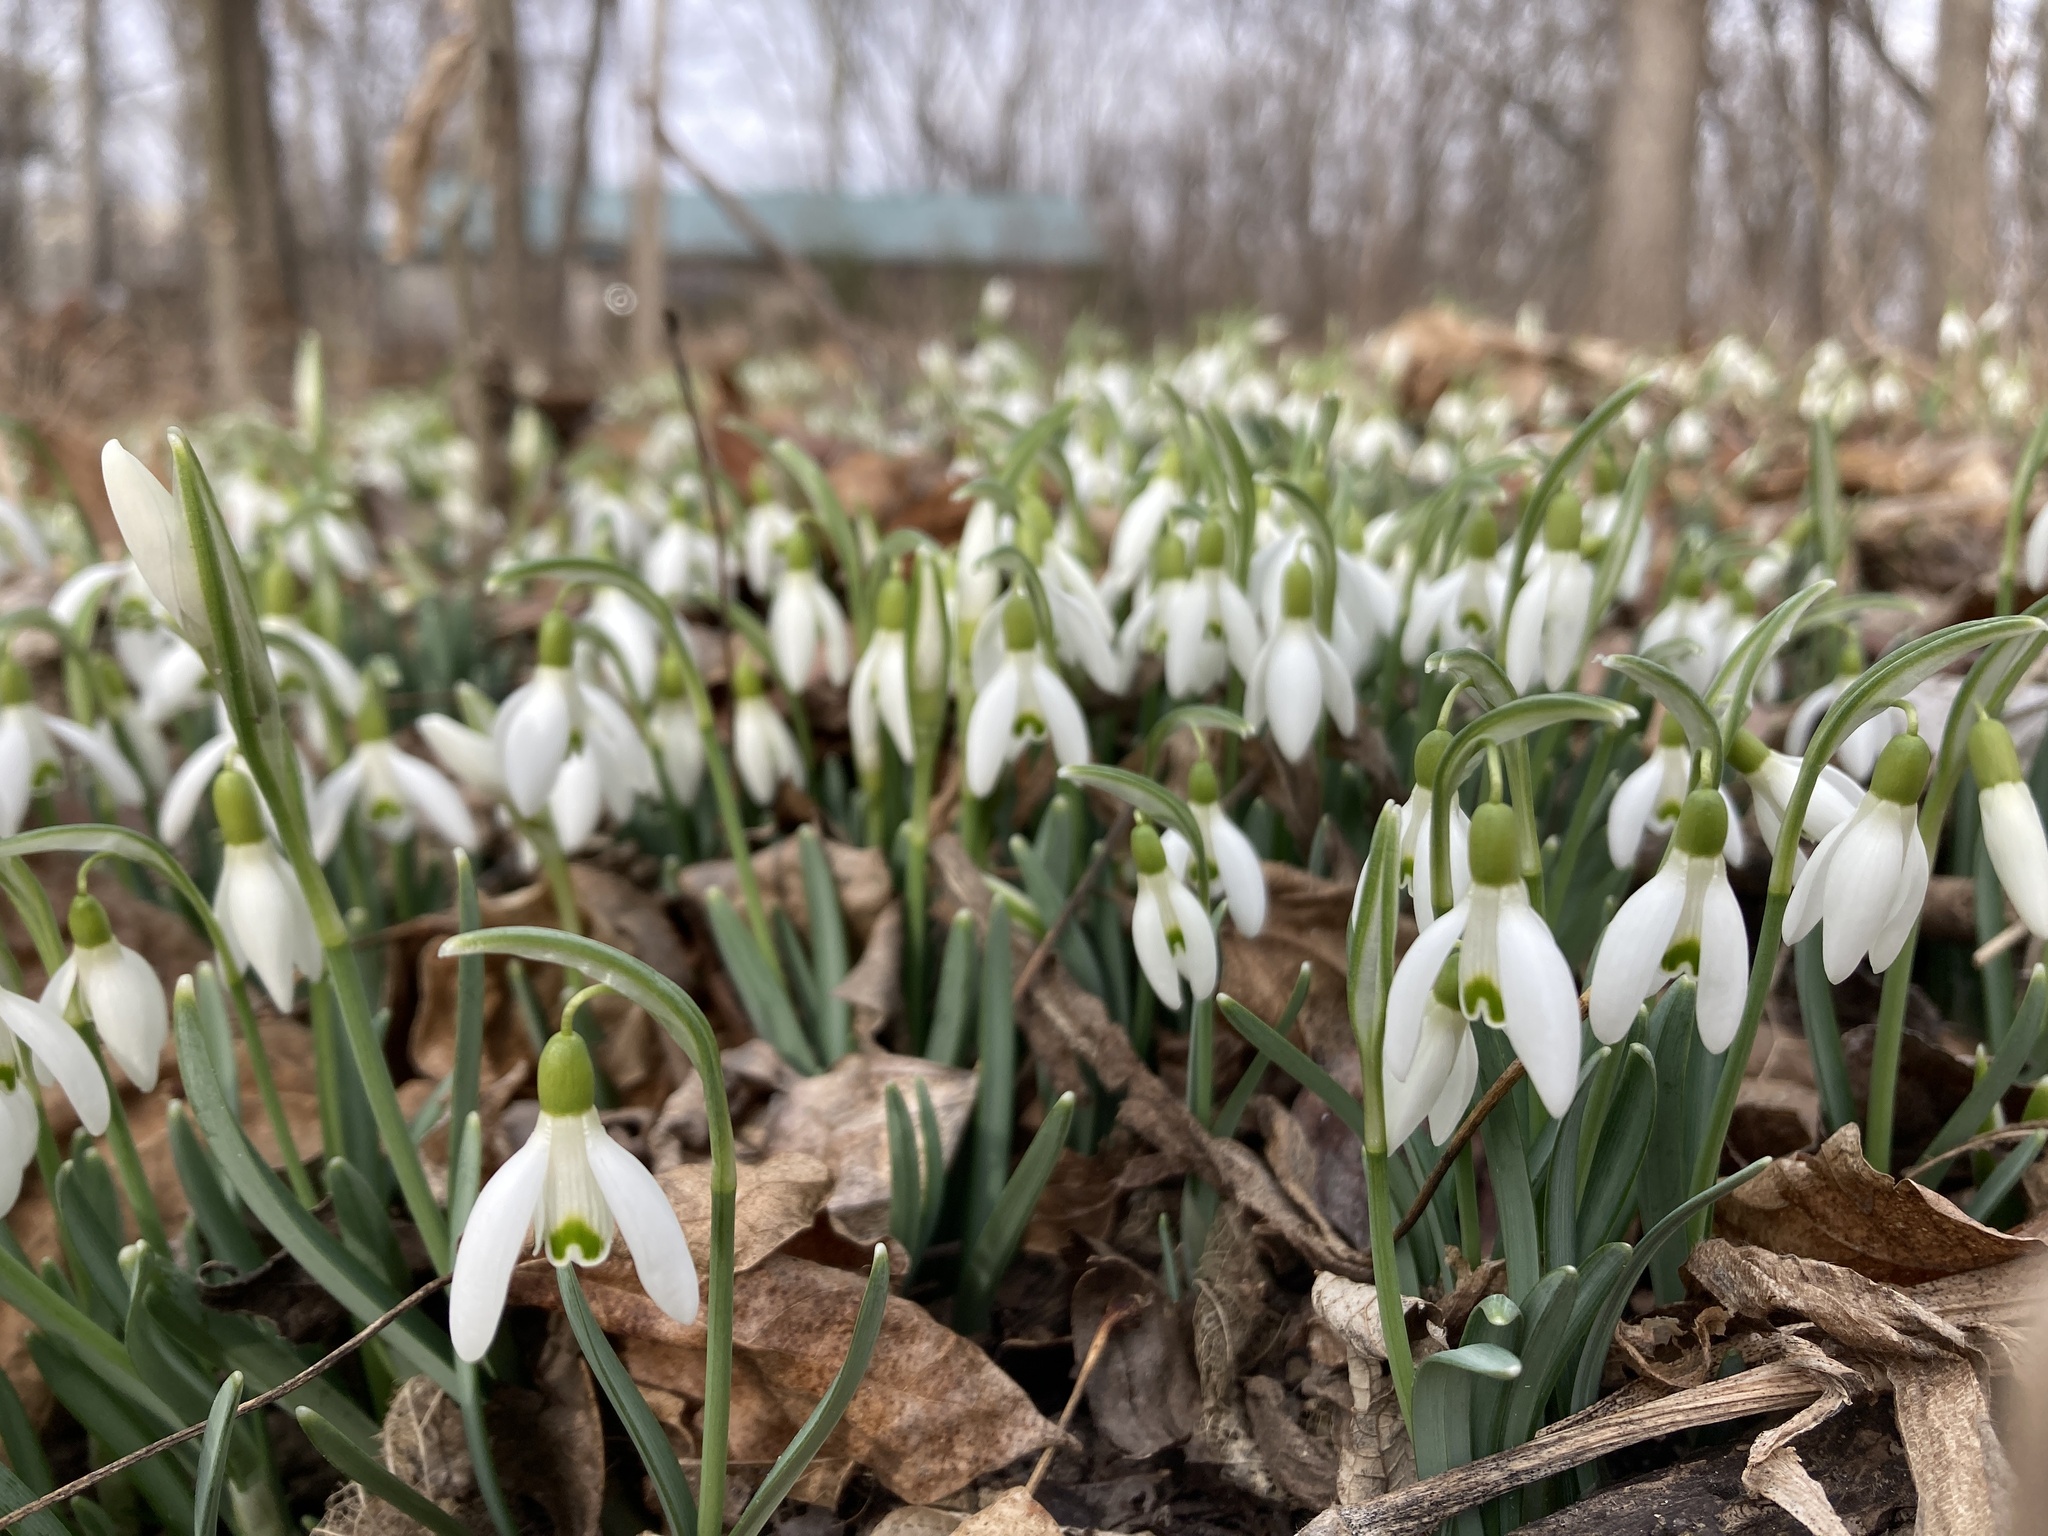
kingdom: Plantae
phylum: Tracheophyta
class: Liliopsida
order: Asparagales
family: Amaryllidaceae
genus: Galanthus
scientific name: Galanthus nivalis
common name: Snowdrop
